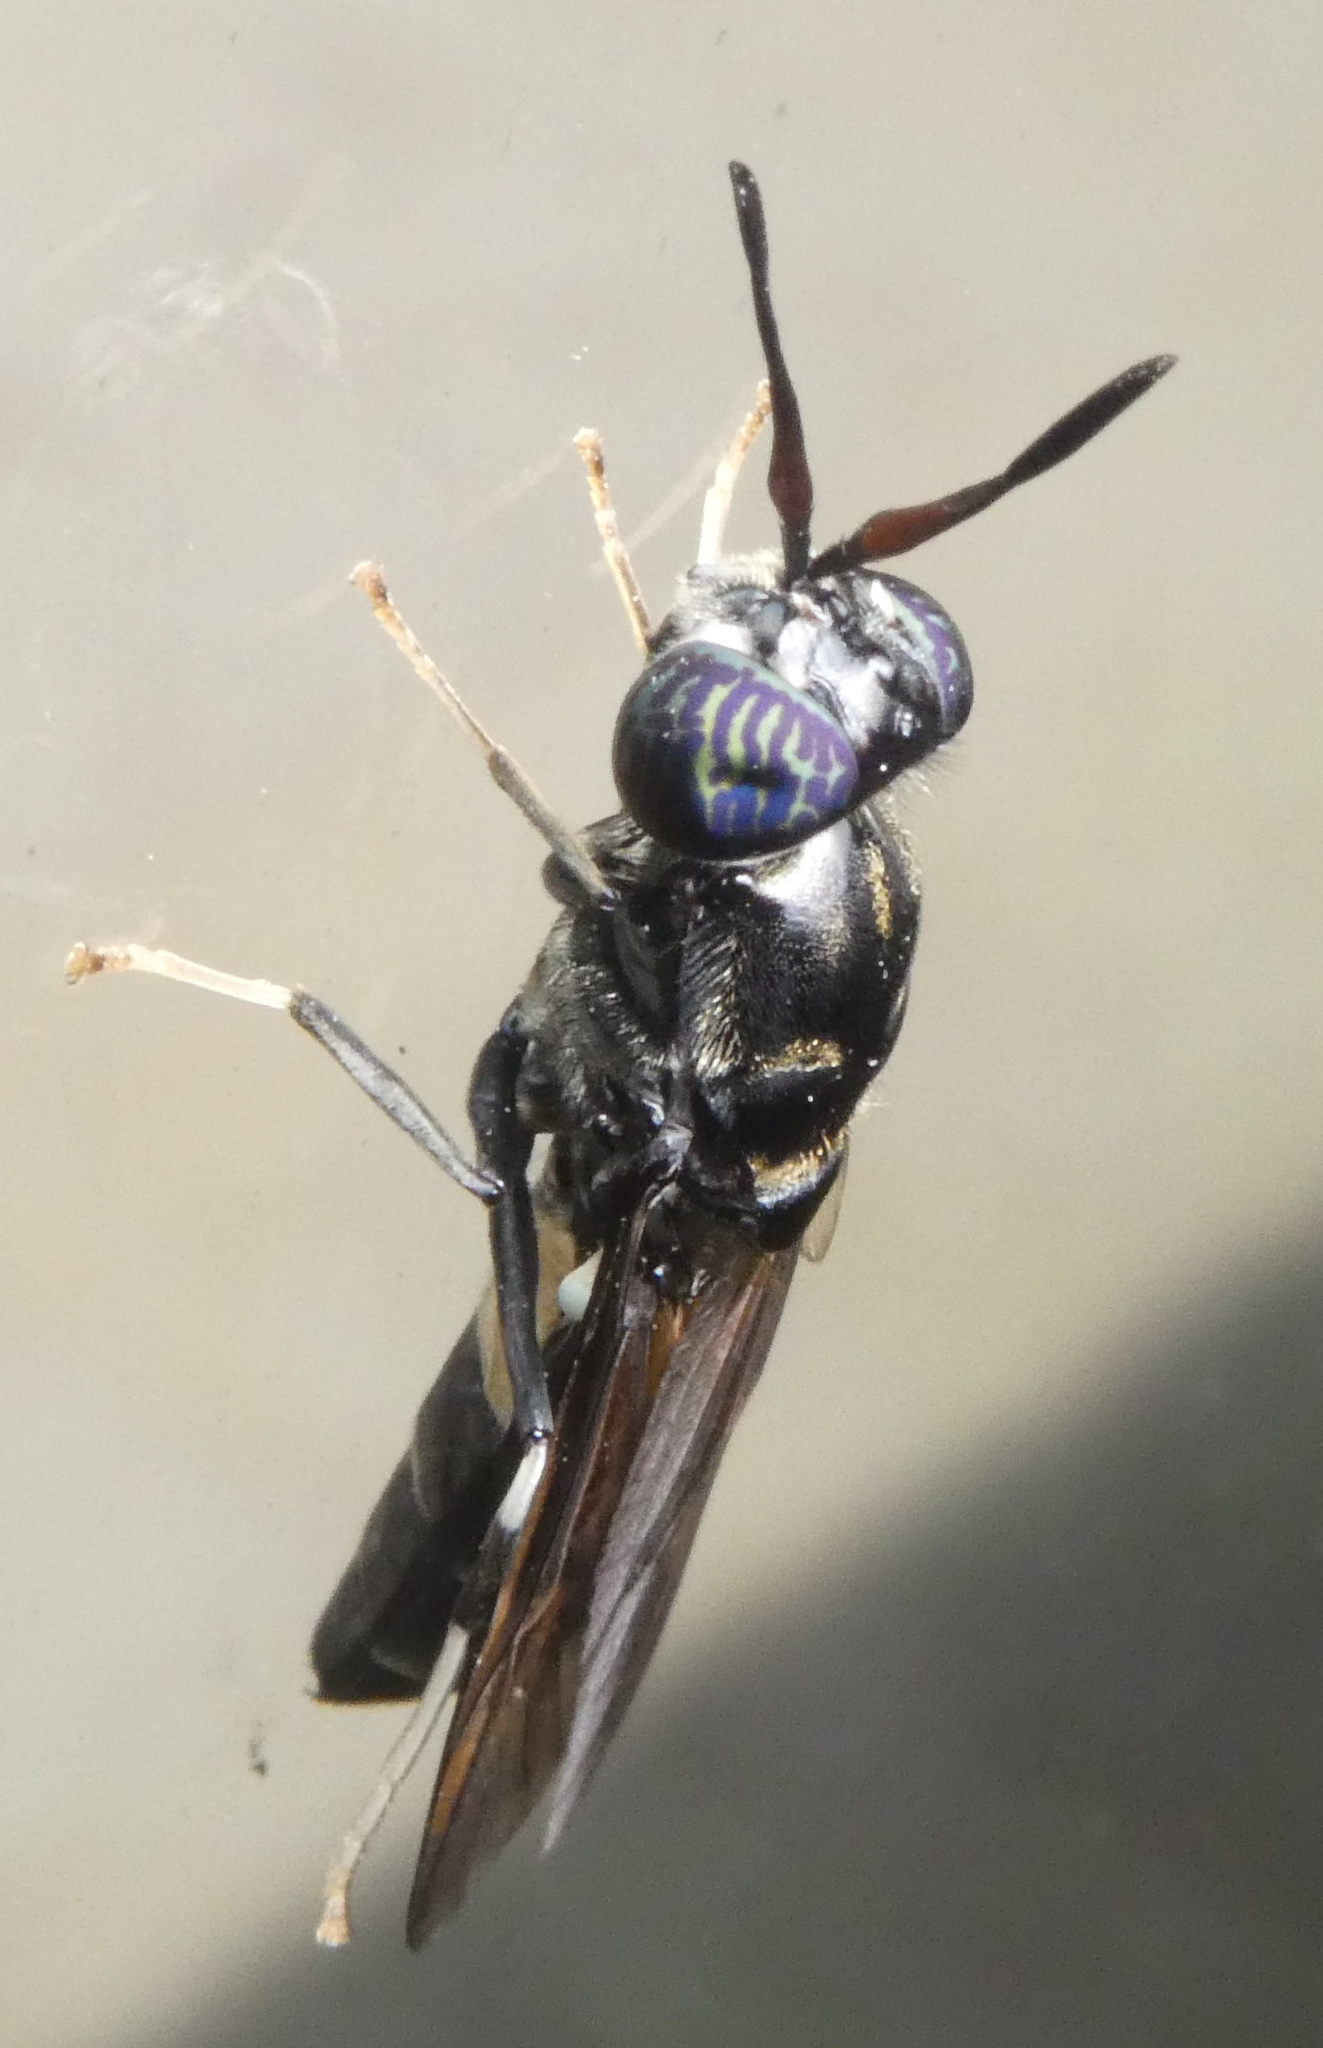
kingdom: Animalia
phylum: Arthropoda
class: Insecta
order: Diptera
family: Stratiomyidae
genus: Hermetia
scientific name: Hermetia illucens
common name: Black soldier fly
